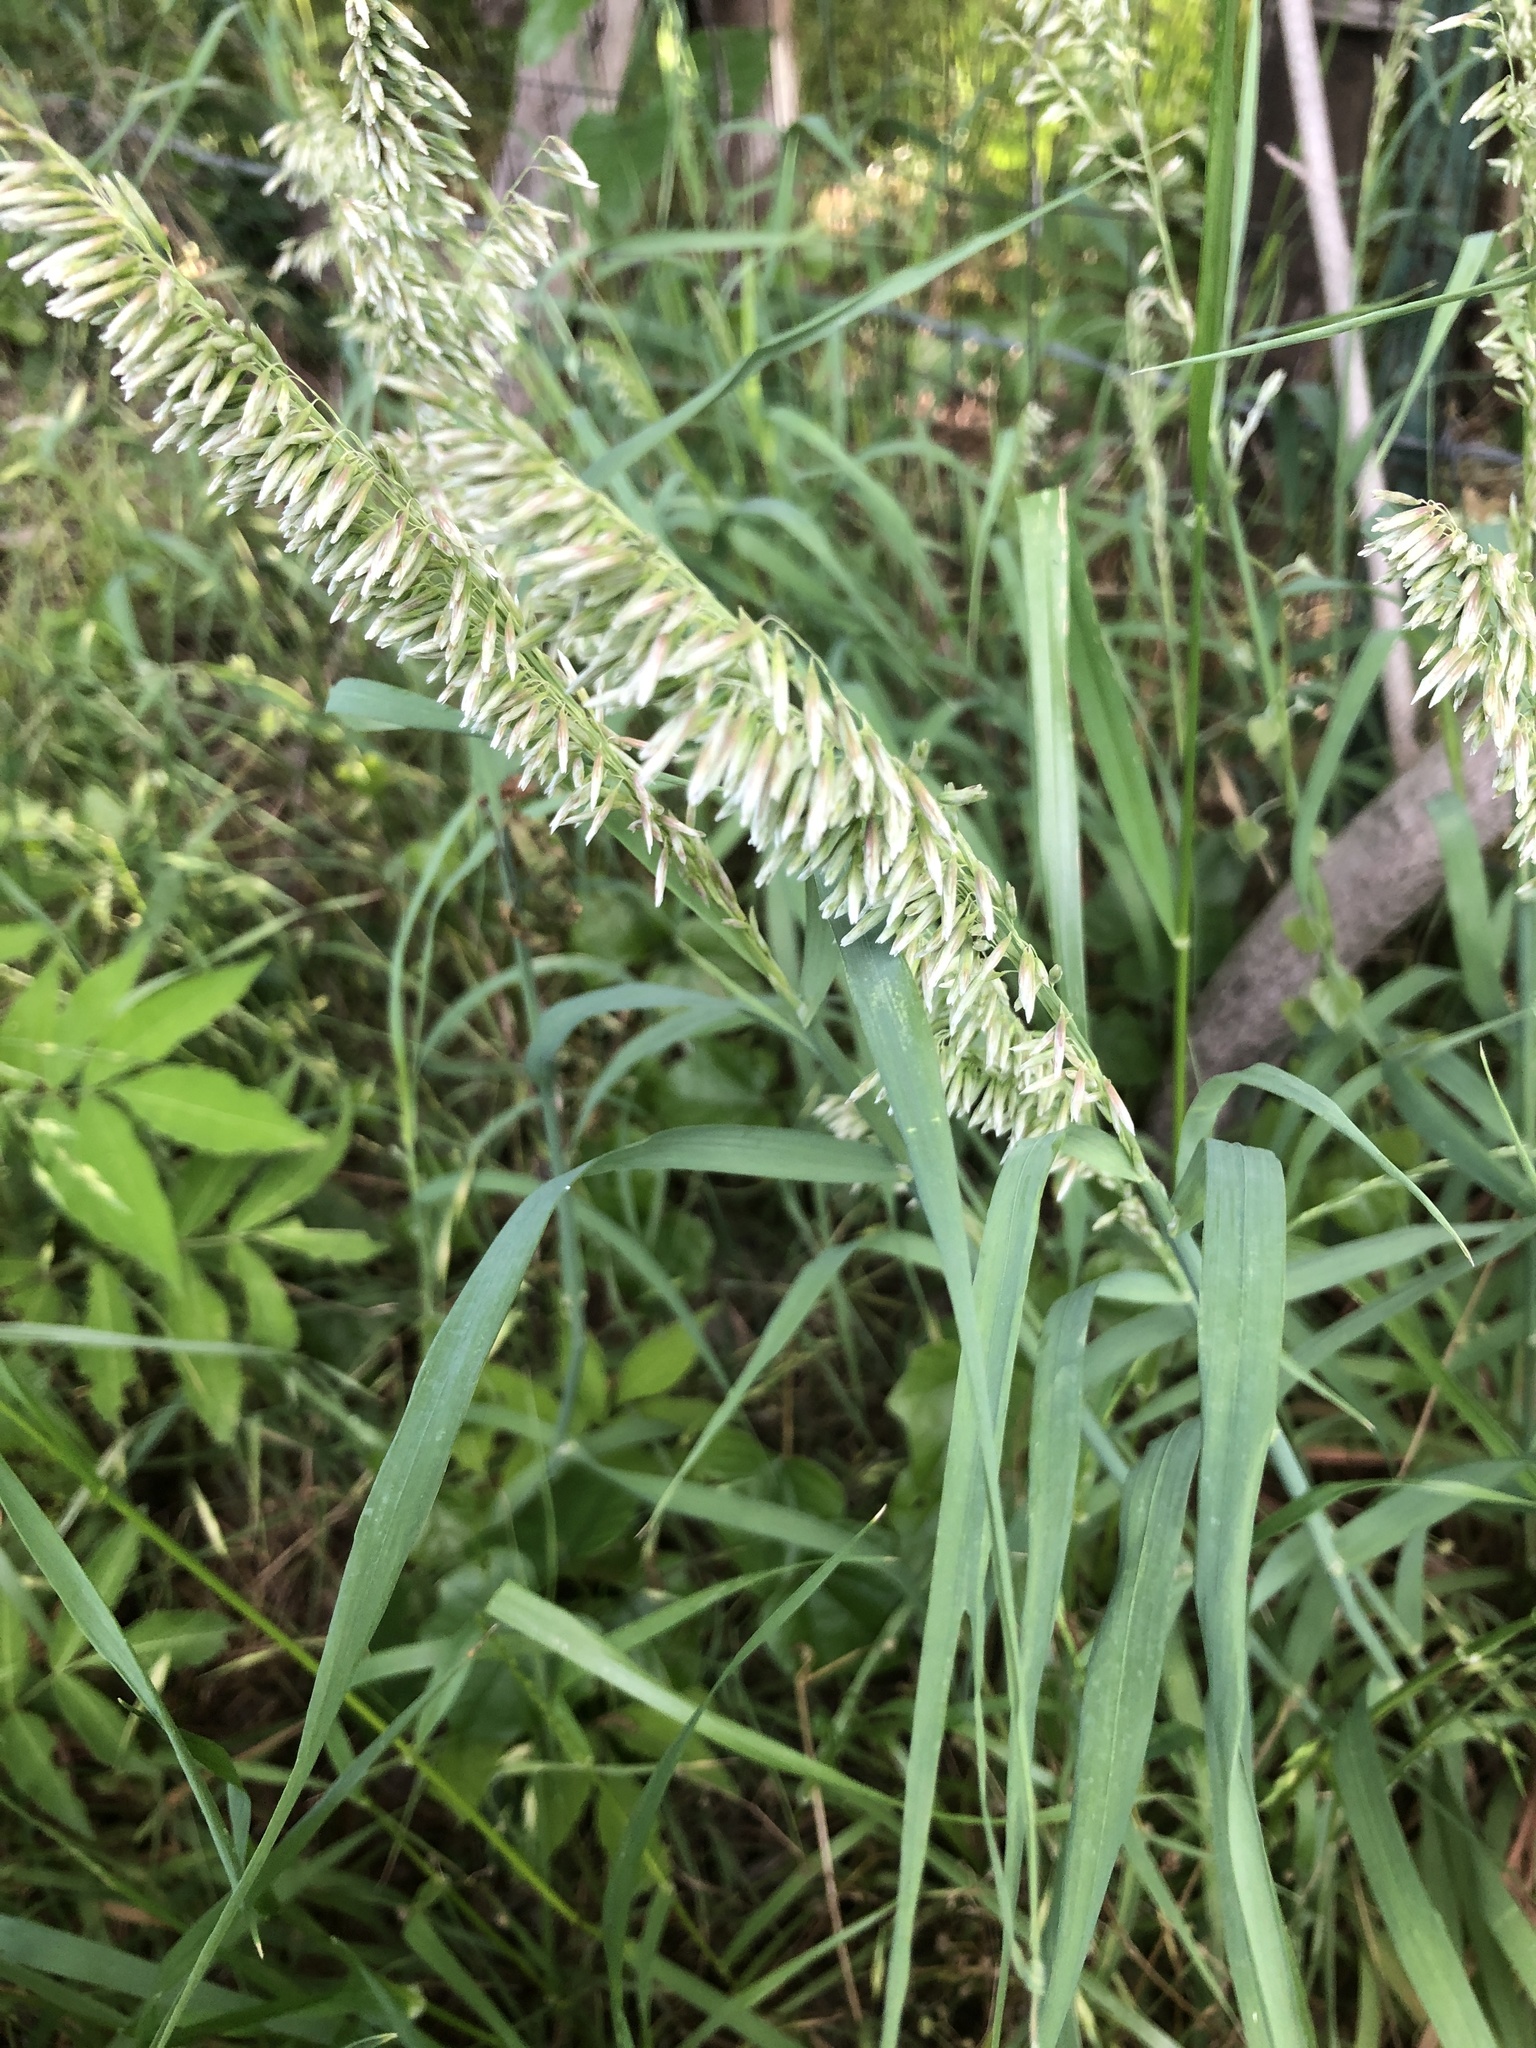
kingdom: Plantae
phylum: Tracheophyta
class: Liliopsida
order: Poales
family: Poaceae
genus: Melica
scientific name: Melica nitens
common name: Three-flower melic
